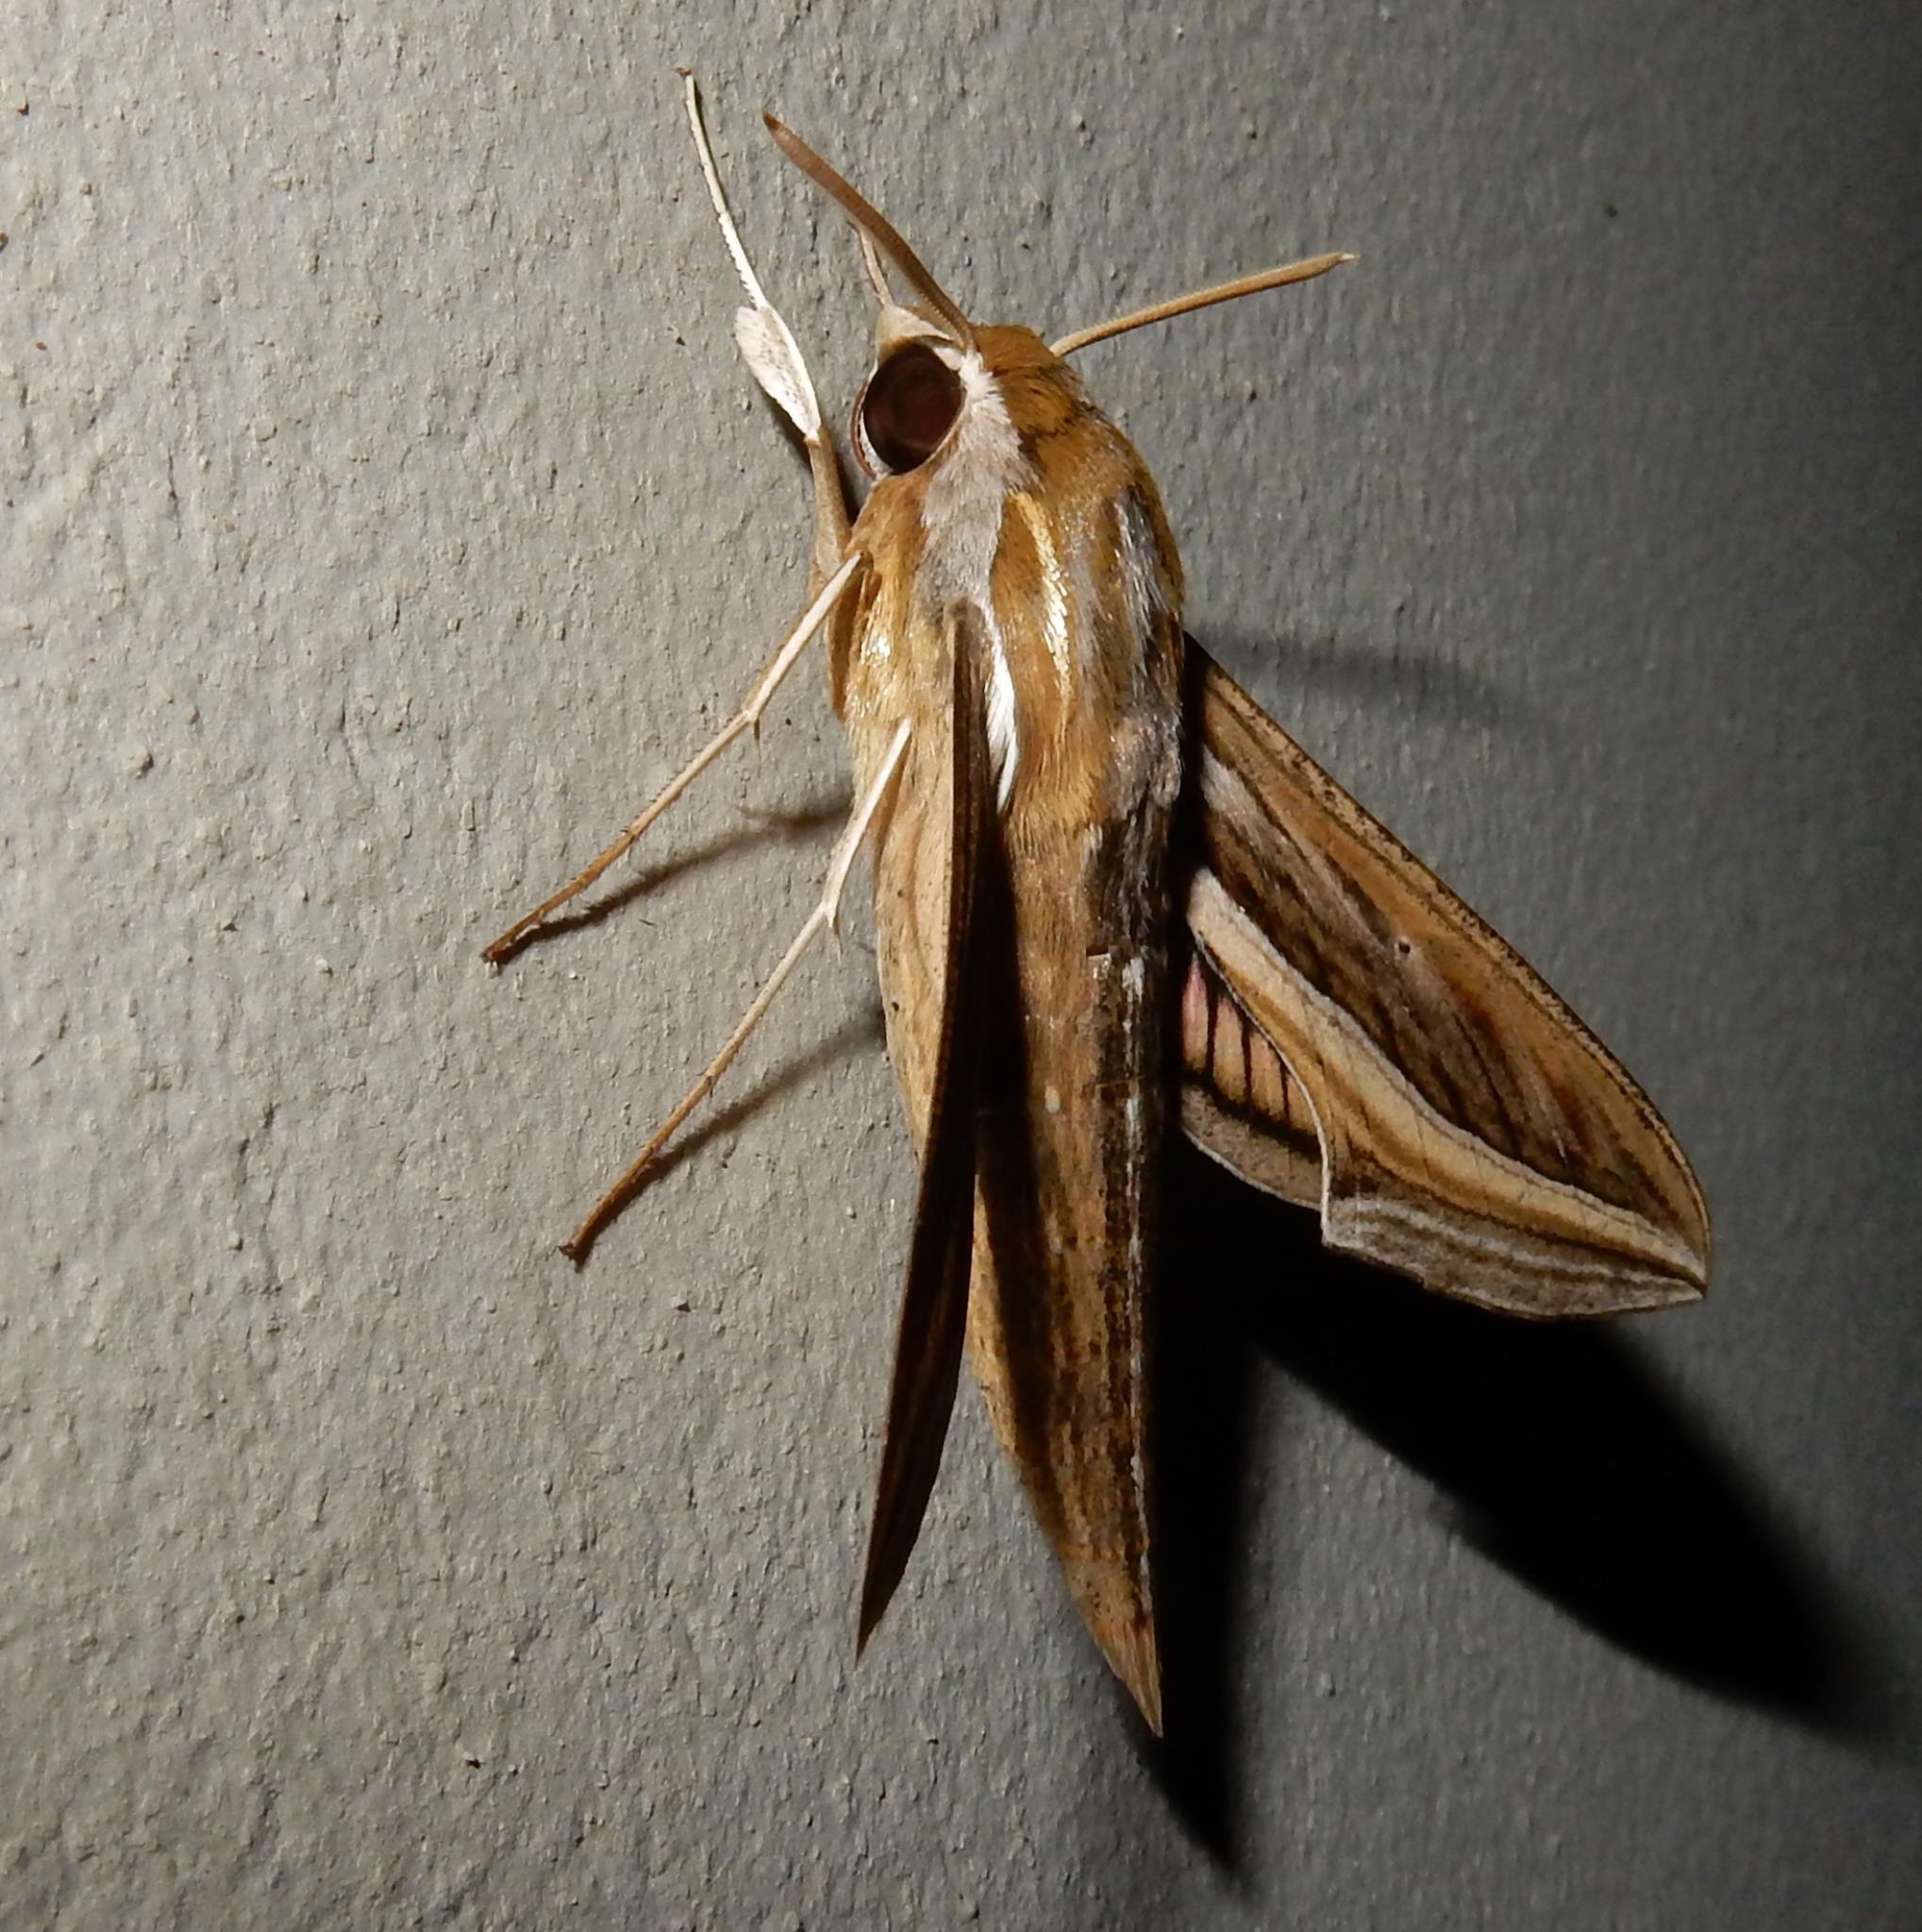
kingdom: Animalia
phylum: Arthropoda
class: Insecta
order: Lepidoptera
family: Sphingidae
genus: Hippotion
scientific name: Hippotion celerio
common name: Silver-striped hawk-moth
